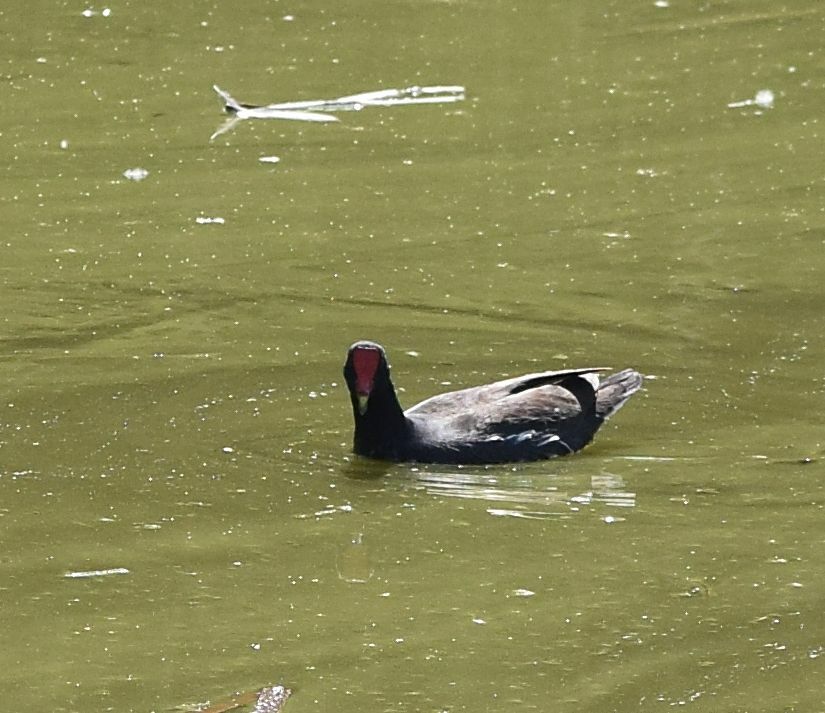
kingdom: Animalia
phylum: Chordata
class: Aves
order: Gruiformes
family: Rallidae
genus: Gallinula
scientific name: Gallinula chloropus
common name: Common moorhen
